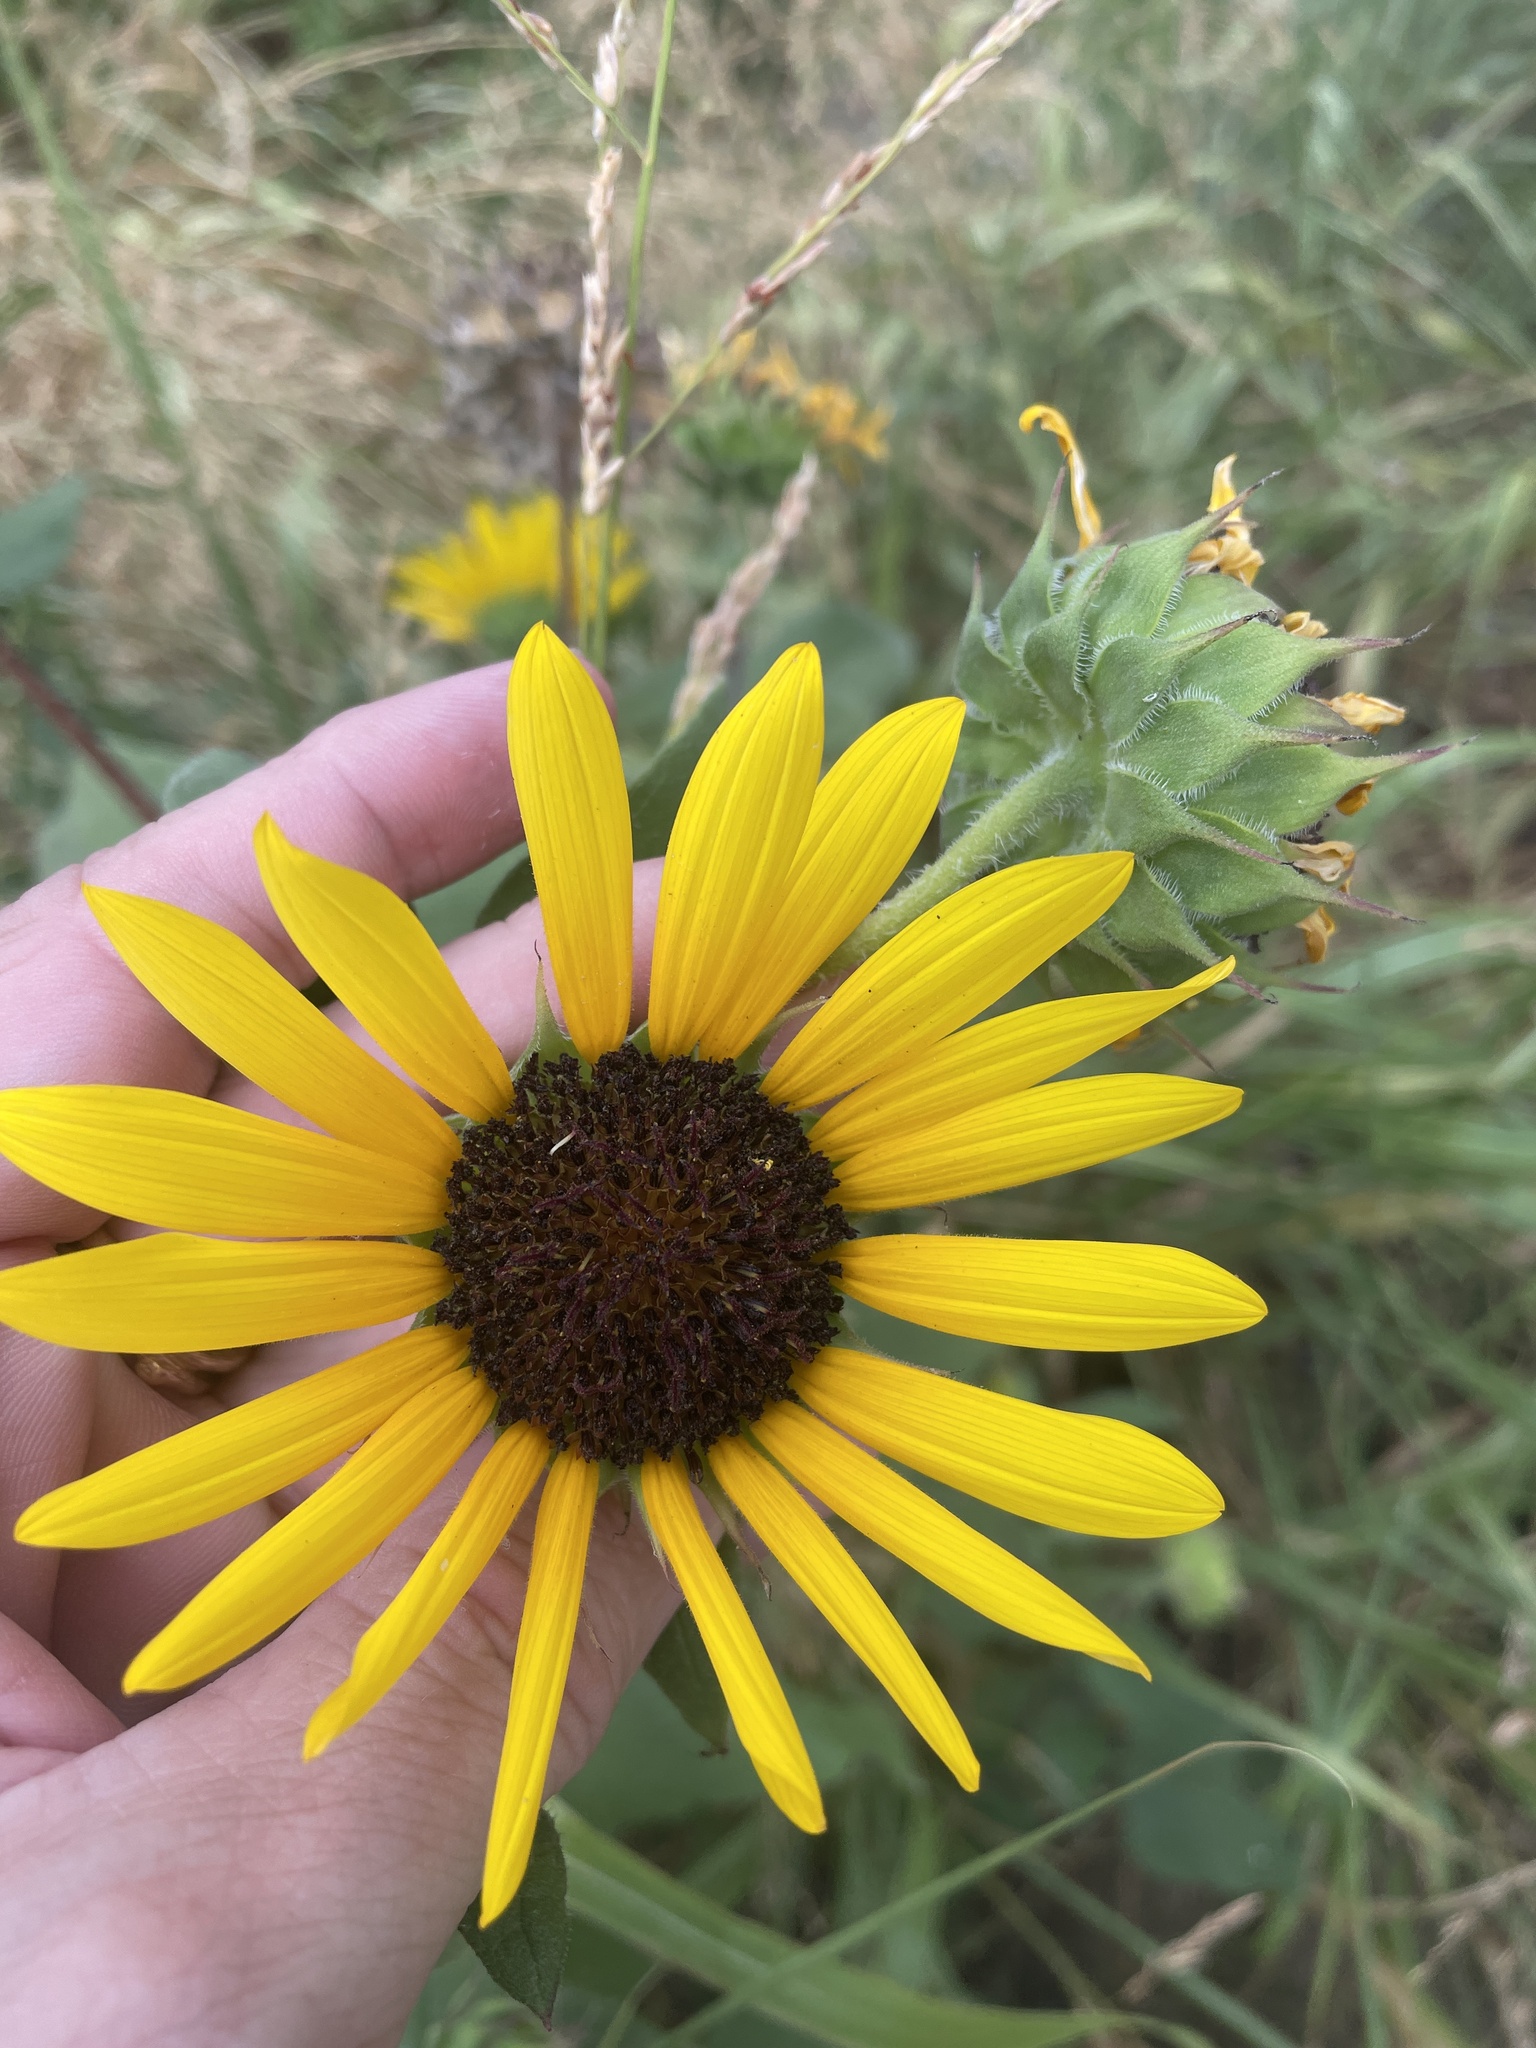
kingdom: Plantae
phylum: Tracheophyta
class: Magnoliopsida
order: Asterales
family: Asteraceae
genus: Helianthus
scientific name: Helianthus annuus
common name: Sunflower
